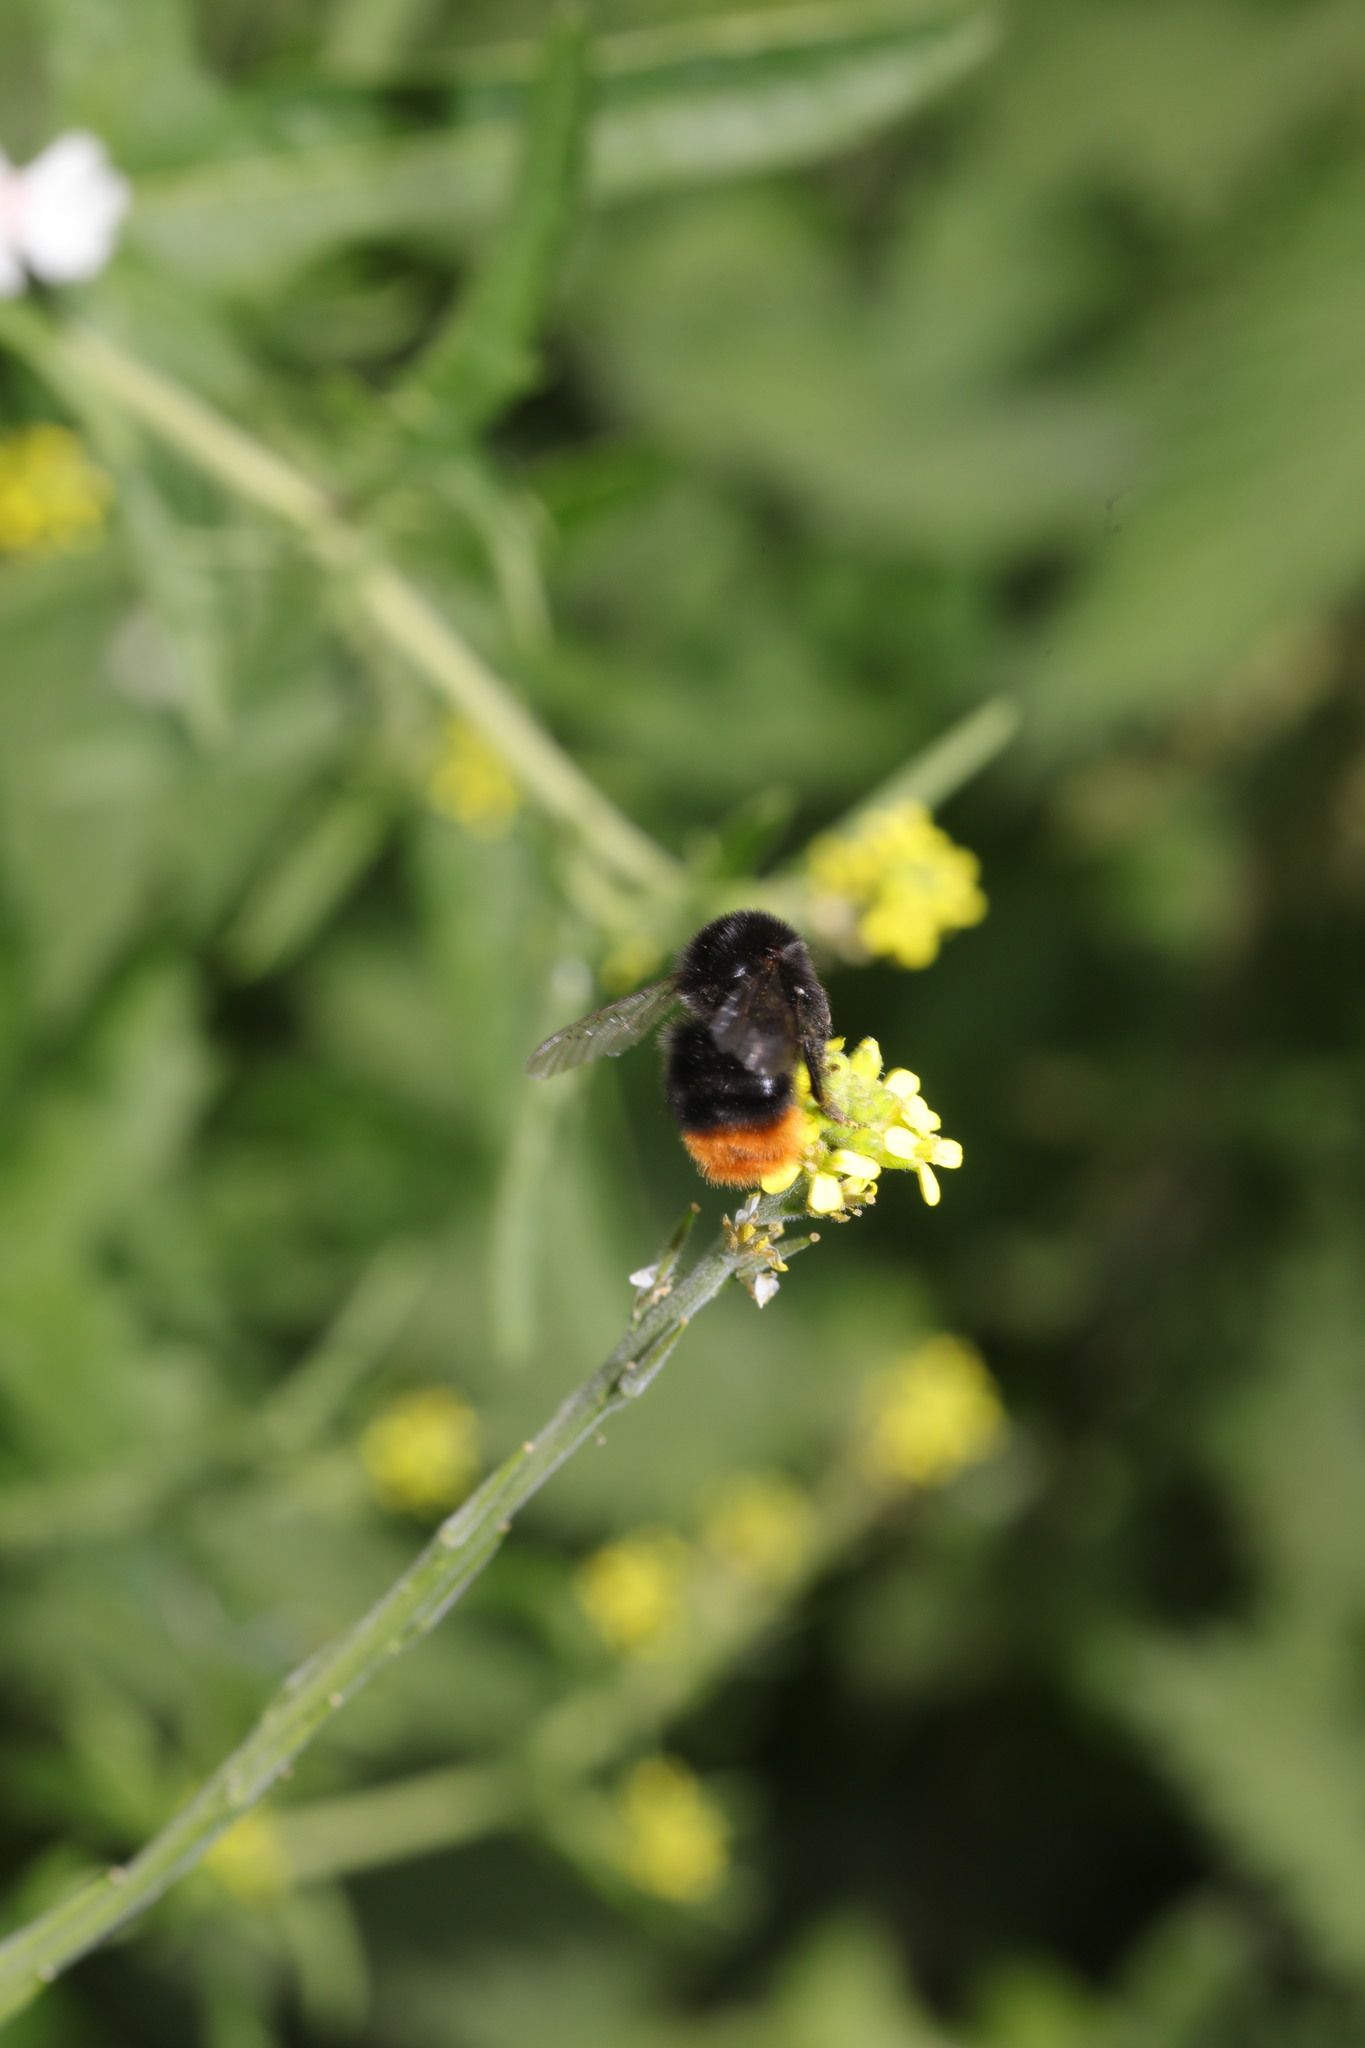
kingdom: Animalia
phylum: Arthropoda
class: Insecta
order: Hymenoptera
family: Apidae
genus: Bombus
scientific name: Bombus lapidarius
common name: Large red-tailed humble-bee
